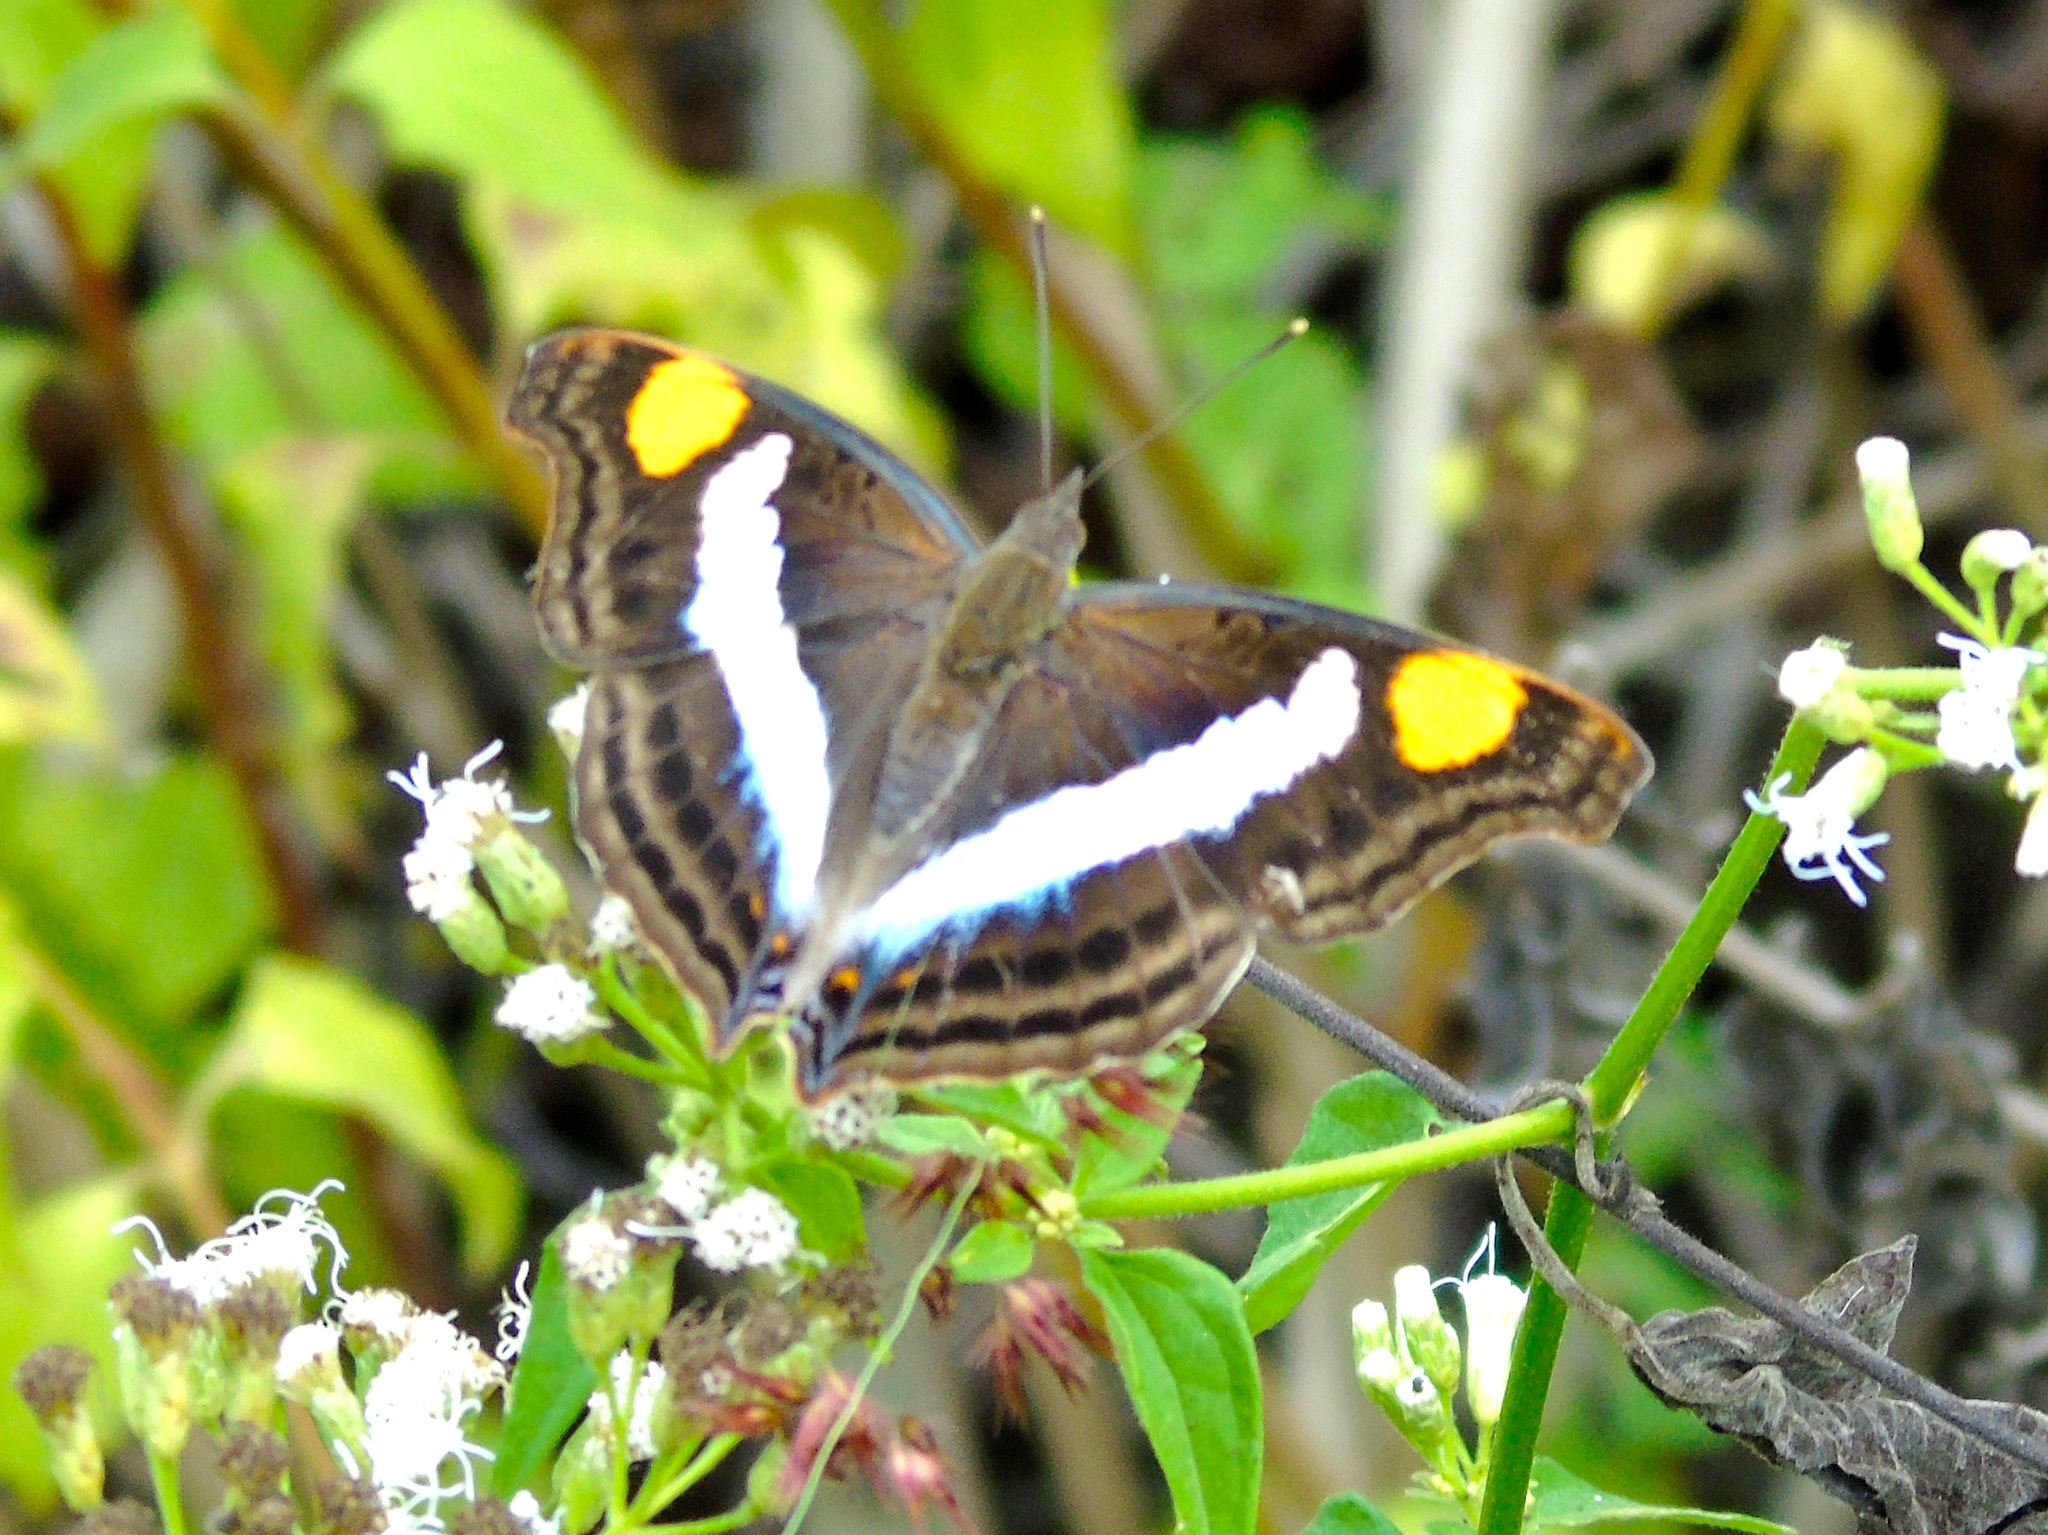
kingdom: Animalia
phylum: Arthropoda
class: Insecta
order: Lepidoptera
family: Nymphalidae
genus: Doxocopa
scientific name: Doxocopa laure
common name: Silver emperor
